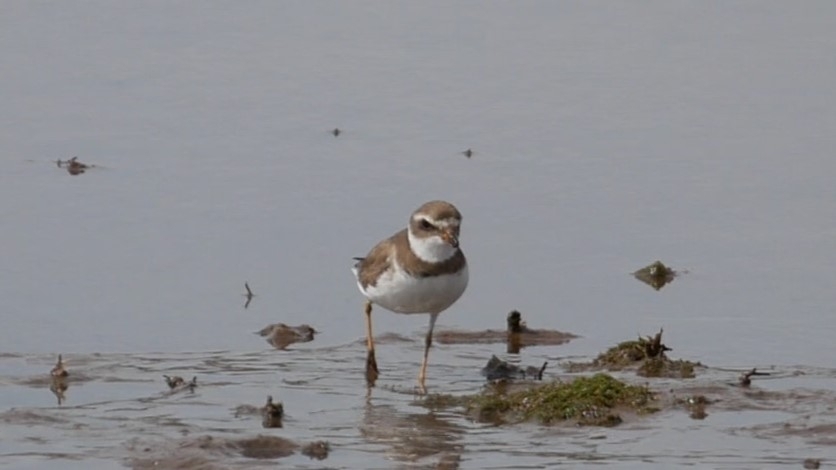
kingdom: Animalia
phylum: Chordata
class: Aves
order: Charadriiformes
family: Charadriidae
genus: Charadrius
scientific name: Charadrius semipalmatus
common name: Semipalmated plover
